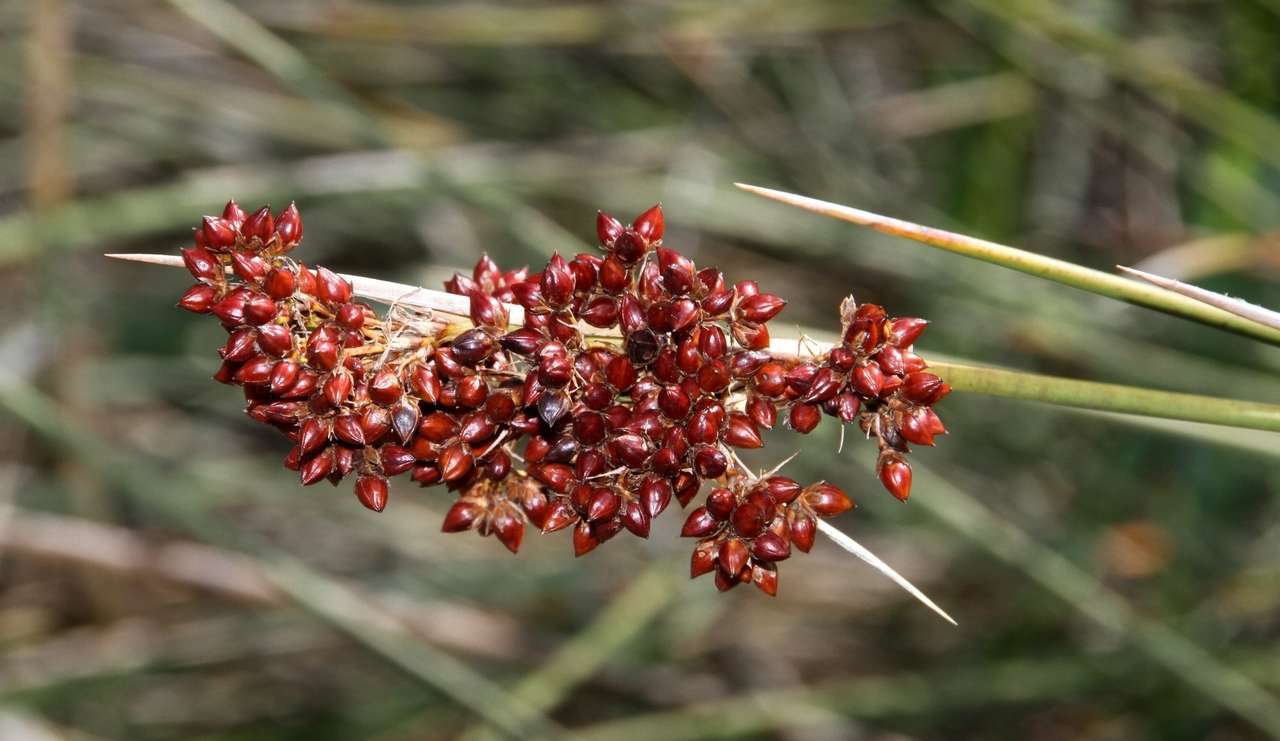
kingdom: Plantae
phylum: Tracheophyta
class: Liliopsida
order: Poales
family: Juncaceae
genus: Juncus
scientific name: Juncus acutus
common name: Sharp rush
